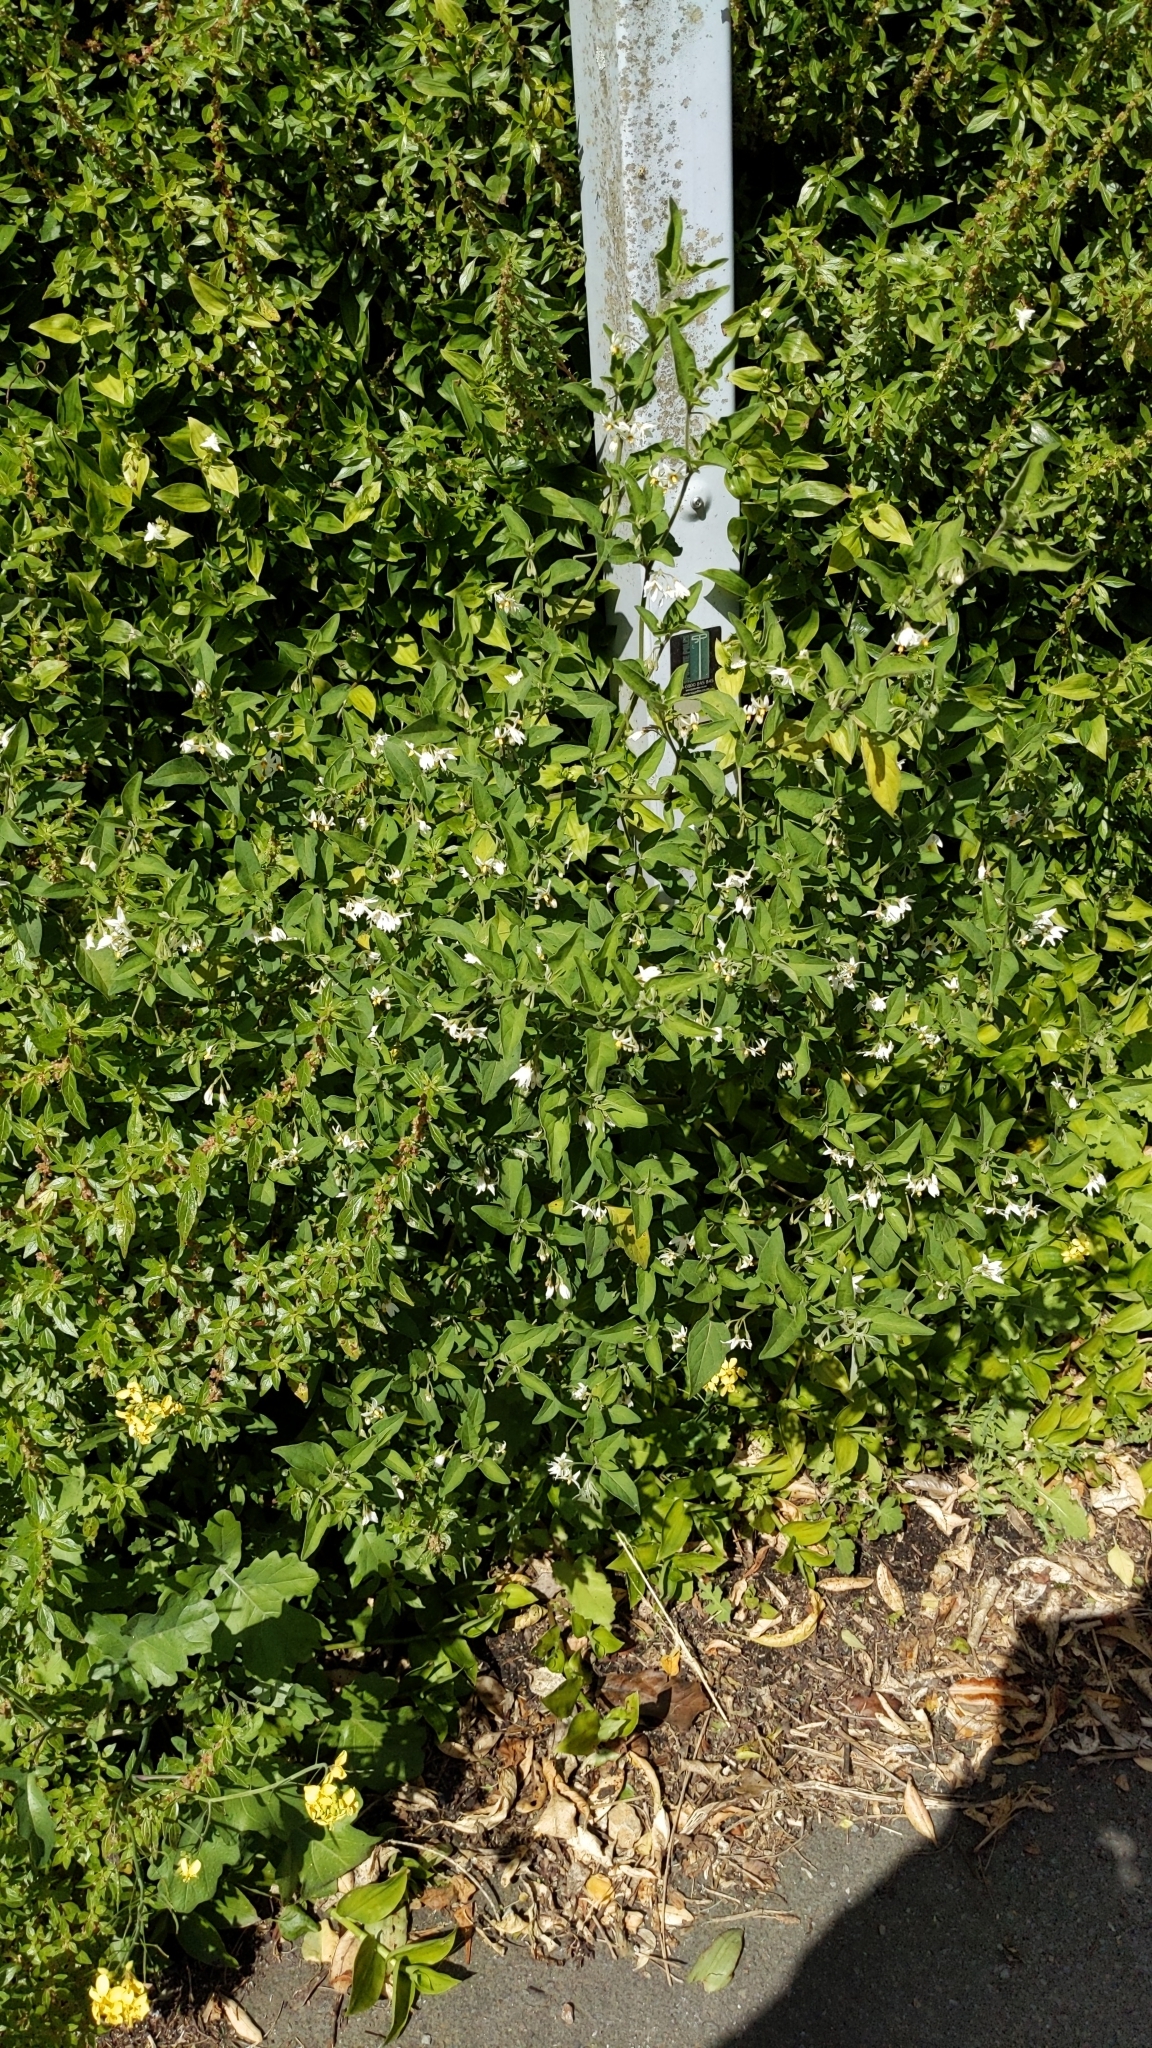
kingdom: Plantae
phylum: Tracheophyta
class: Magnoliopsida
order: Solanales
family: Solanaceae
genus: Solanum
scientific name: Solanum chenopodioides
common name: Tall nightshade
